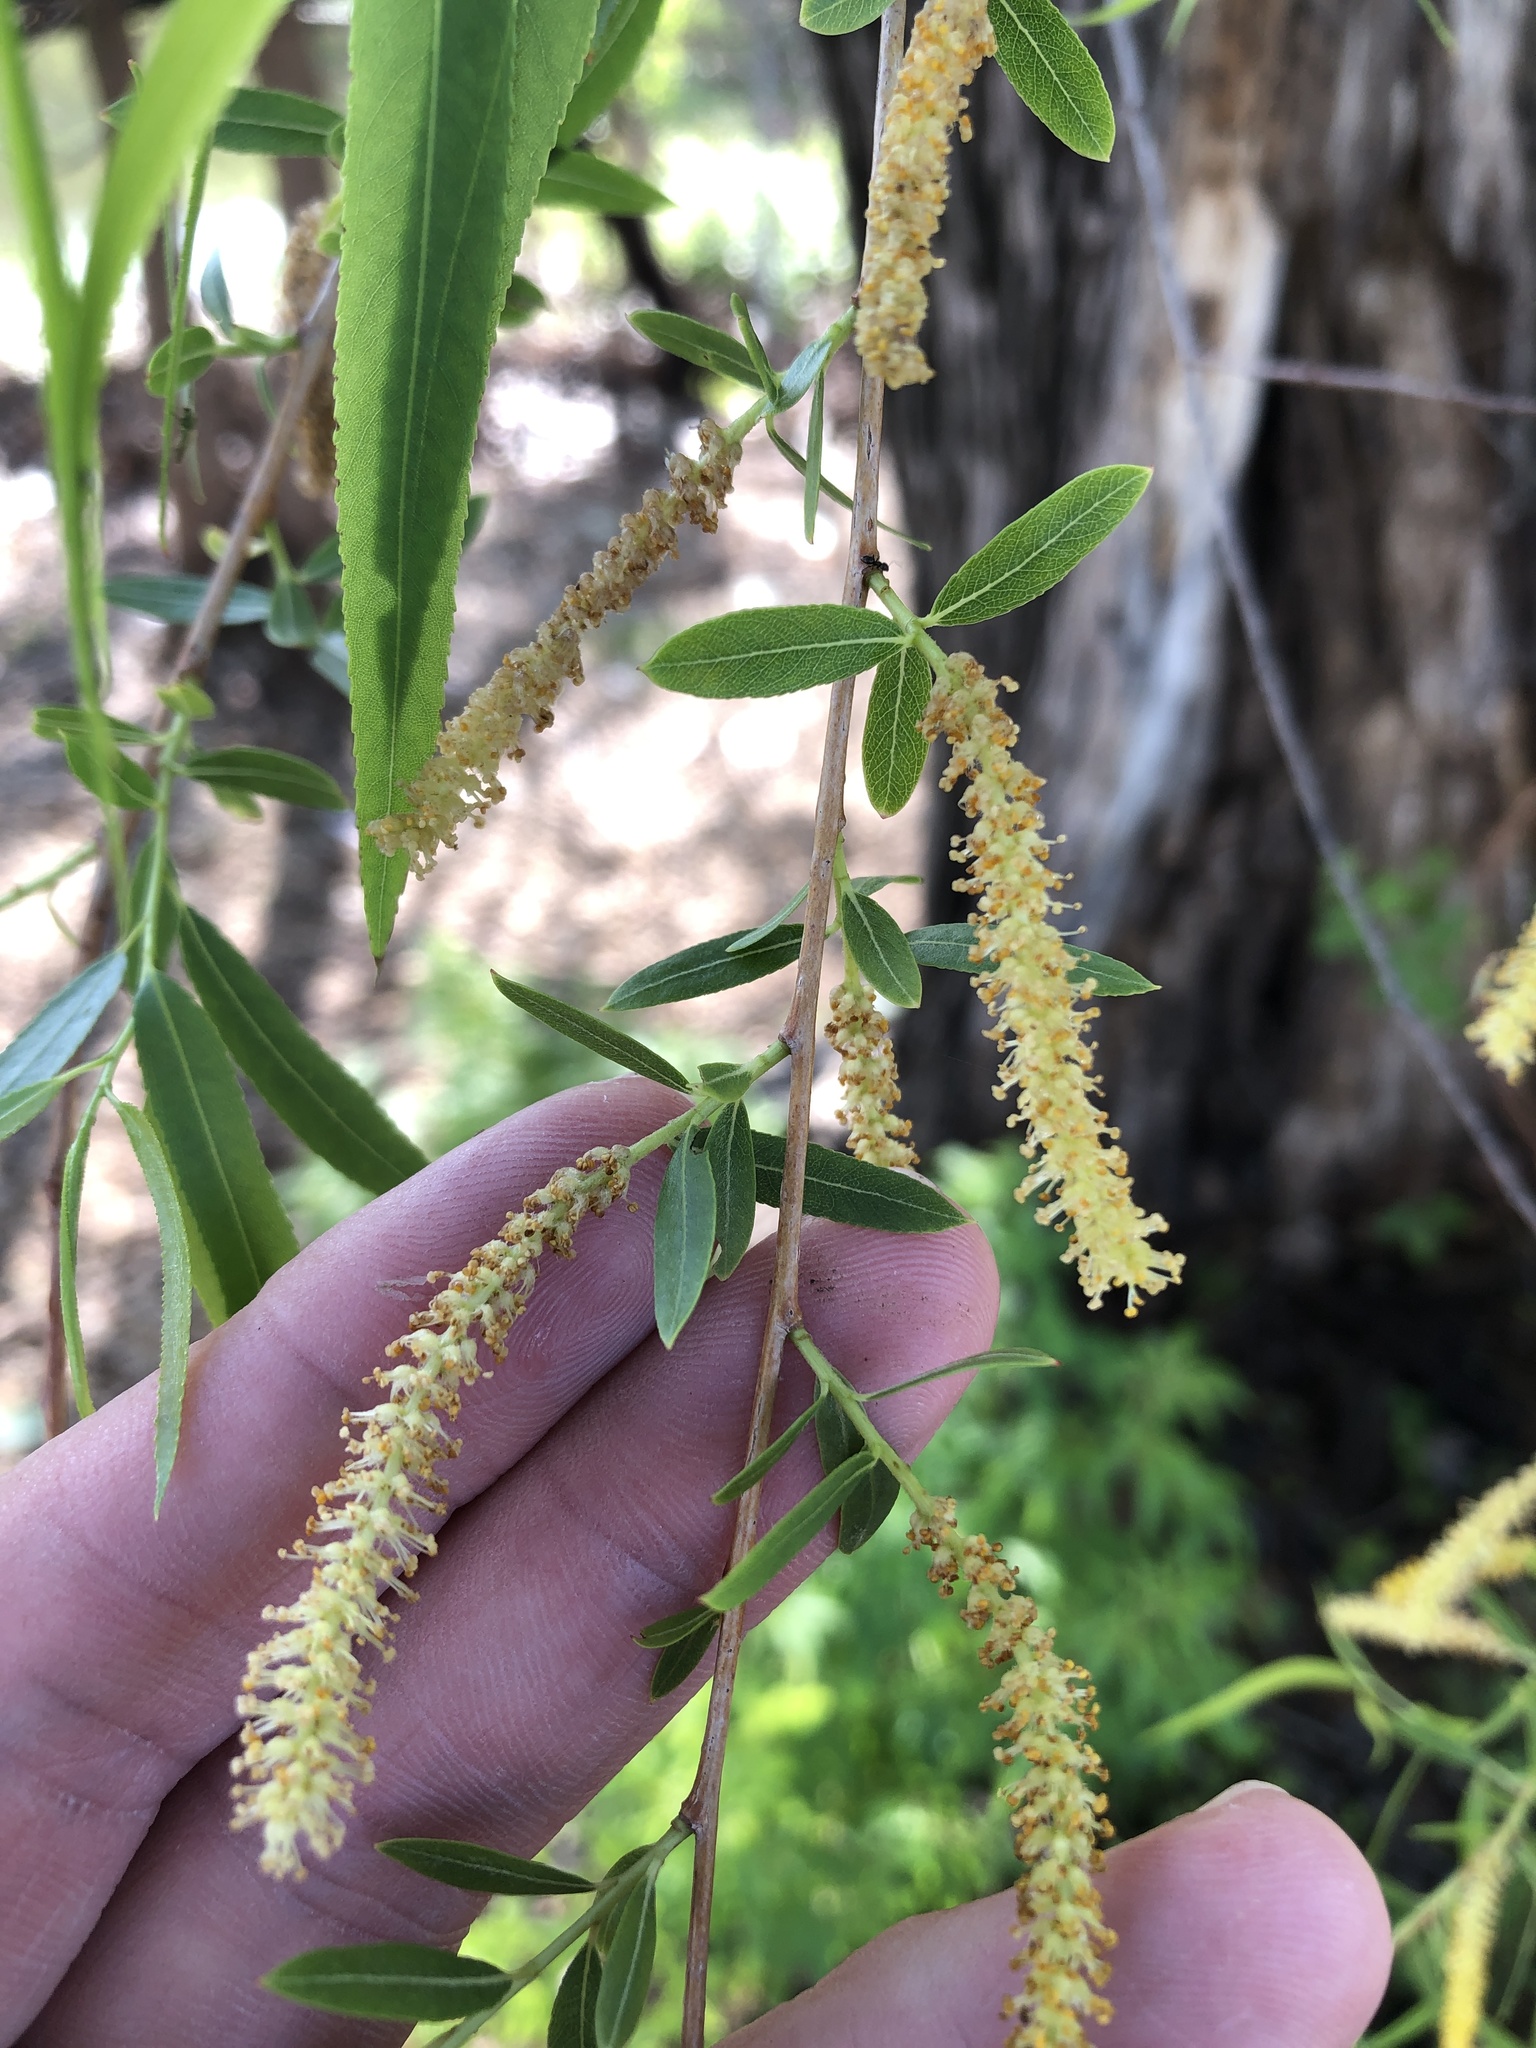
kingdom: Plantae
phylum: Tracheophyta
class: Magnoliopsida
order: Malpighiales
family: Salicaceae
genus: Salix
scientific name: Salix nigra
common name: Black willow
